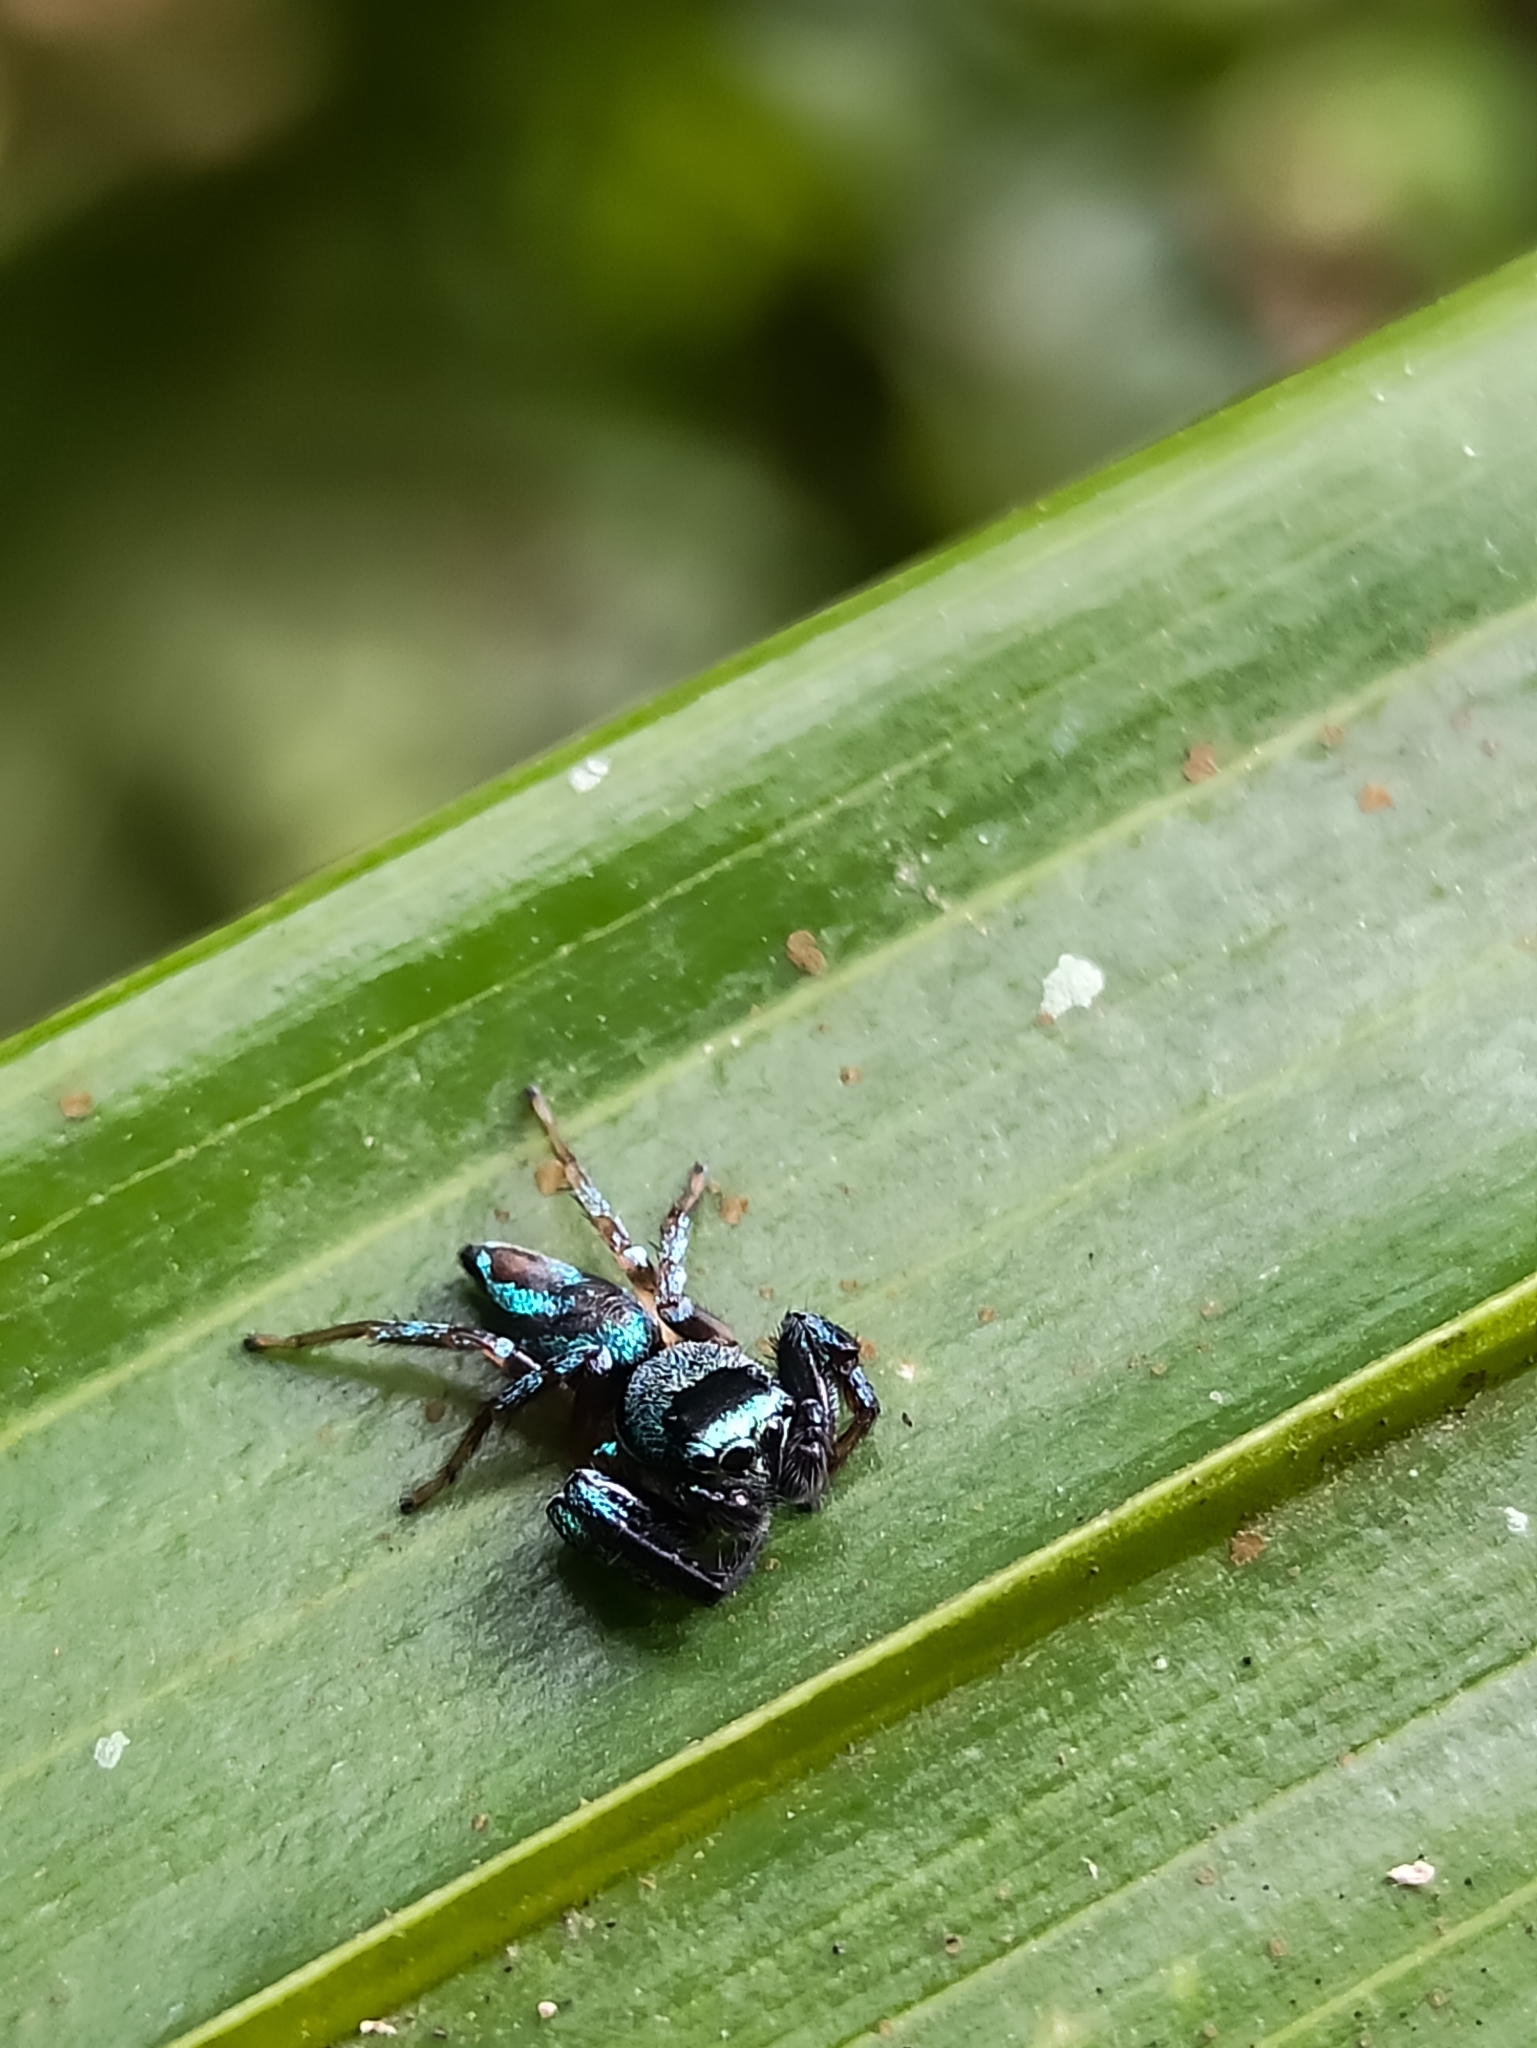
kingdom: Animalia
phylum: Arthropoda
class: Arachnida
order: Araneae
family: Salticidae
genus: Thiania
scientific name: Thiania bhamoensis
